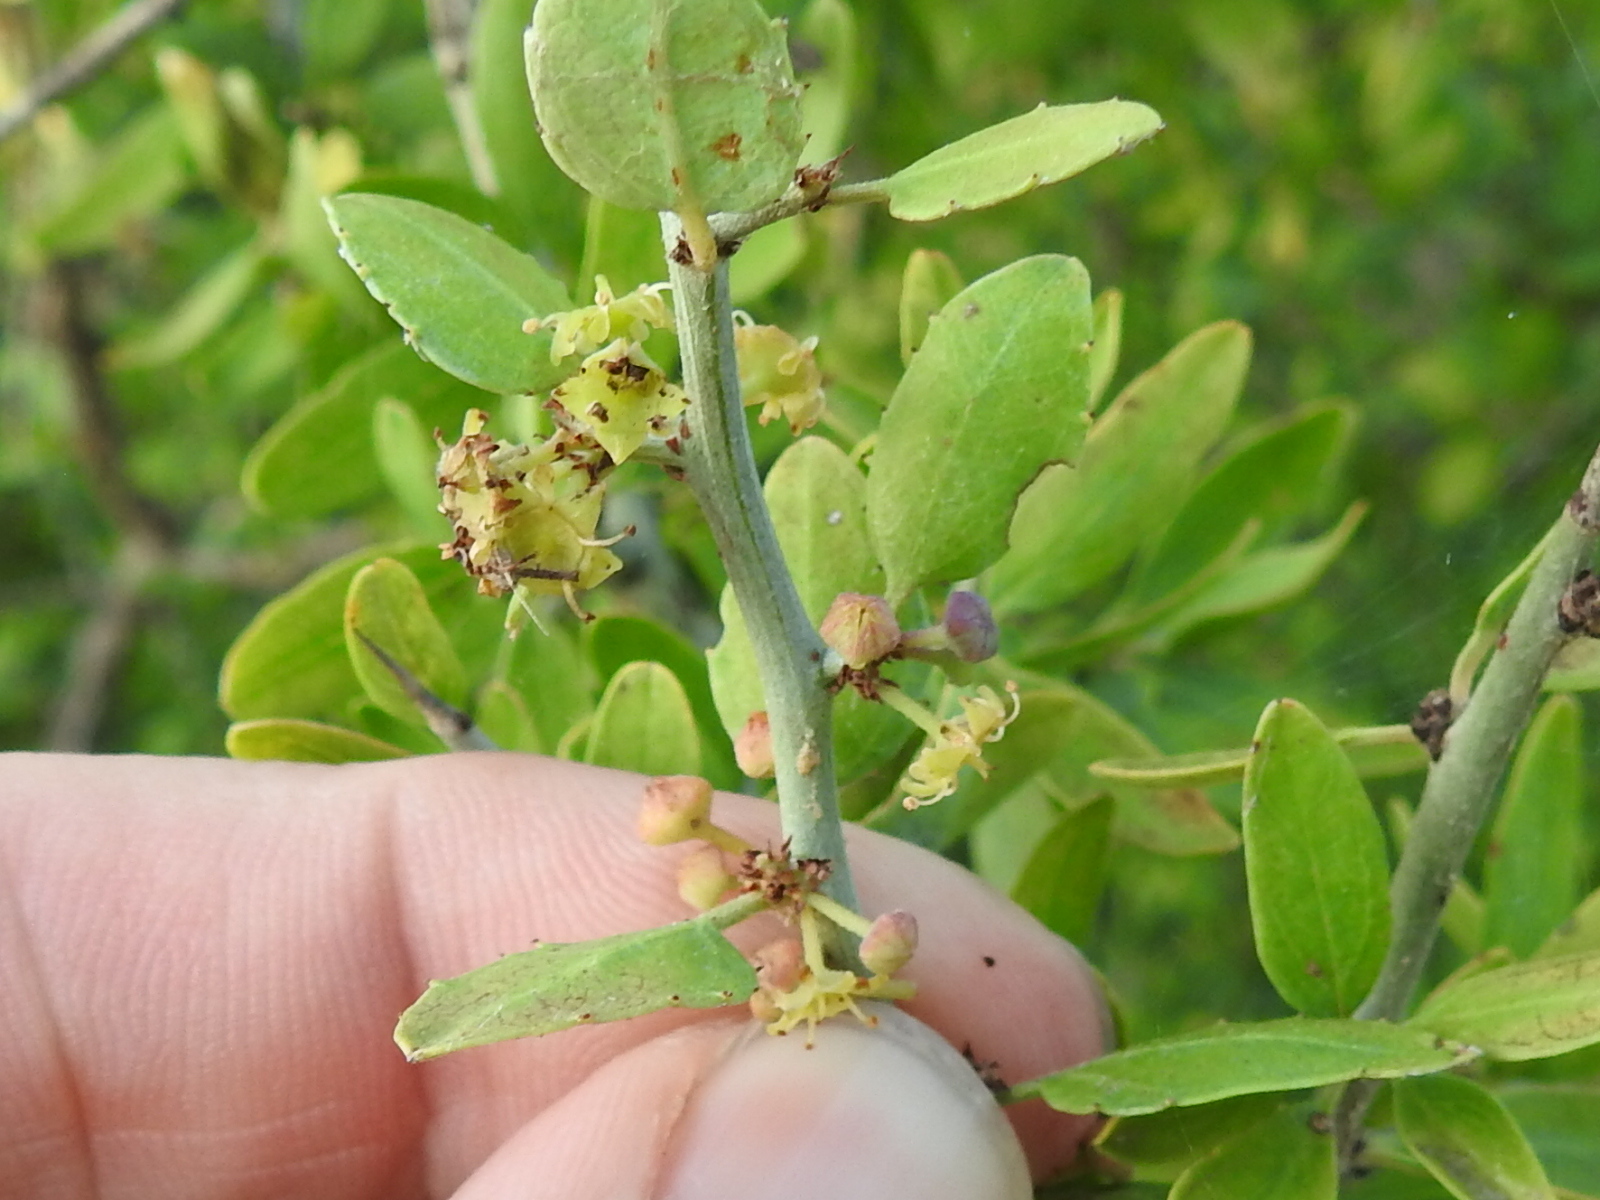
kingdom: Plantae
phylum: Tracheophyta
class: Magnoliopsida
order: Rosales
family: Rhamnaceae
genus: Sarcomphalus
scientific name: Sarcomphalus obtusifolius
